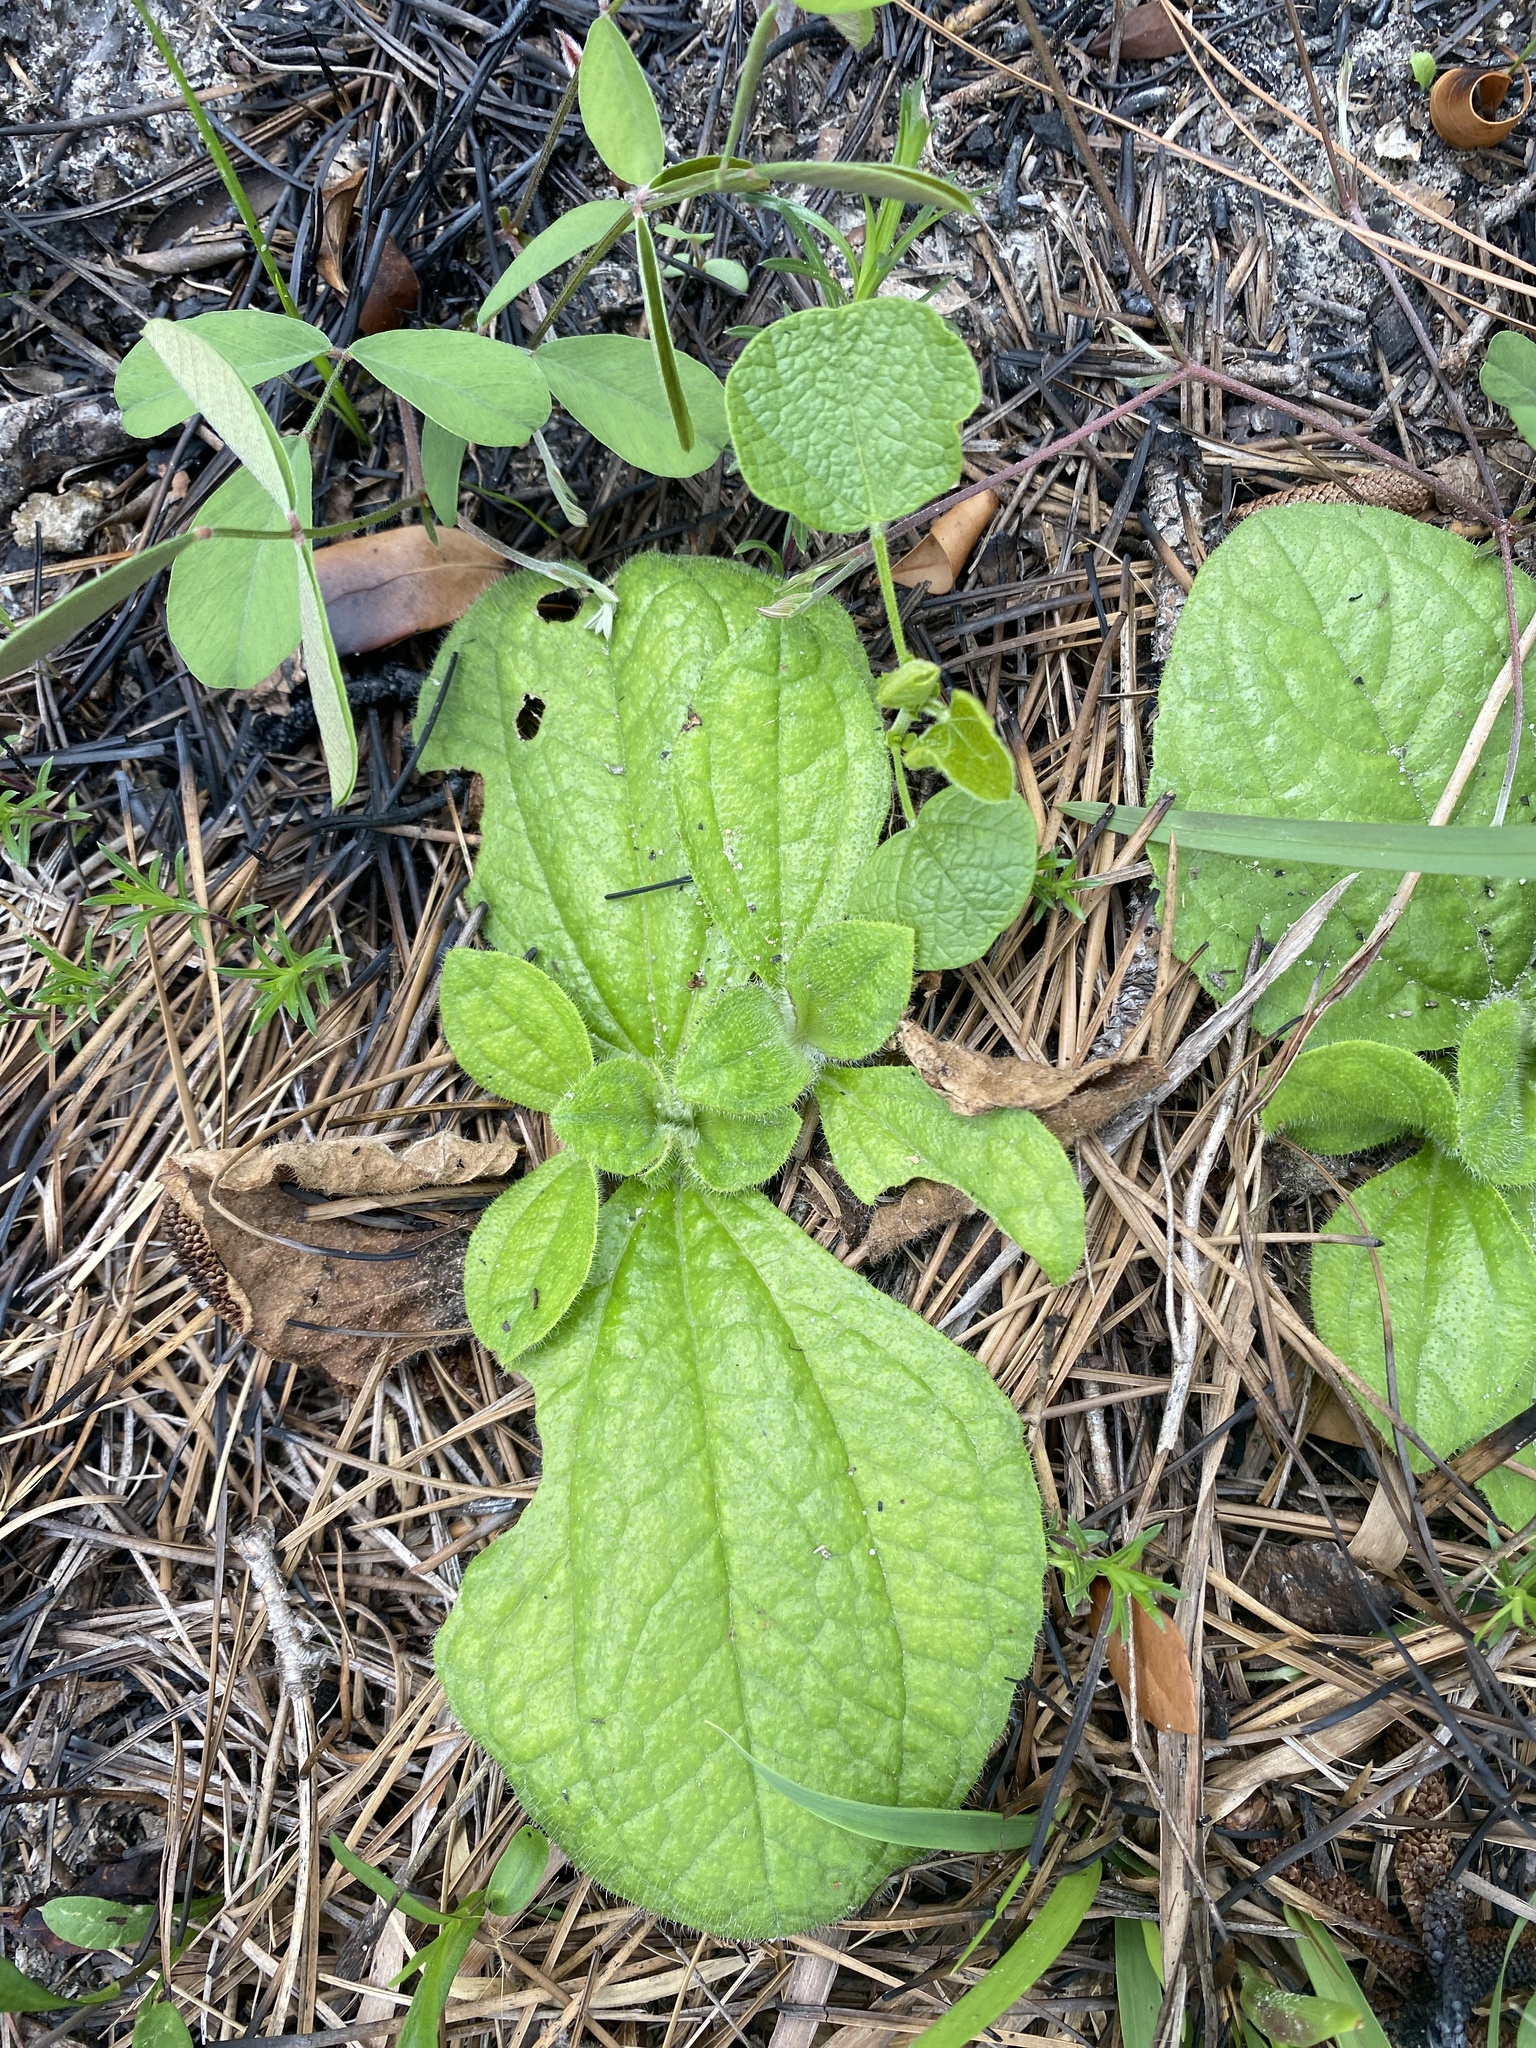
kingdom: Plantae
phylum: Tracheophyta
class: Magnoliopsida
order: Asterales
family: Asteraceae
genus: Helianthus
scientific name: Helianthus radula
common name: Pineland sunflower
